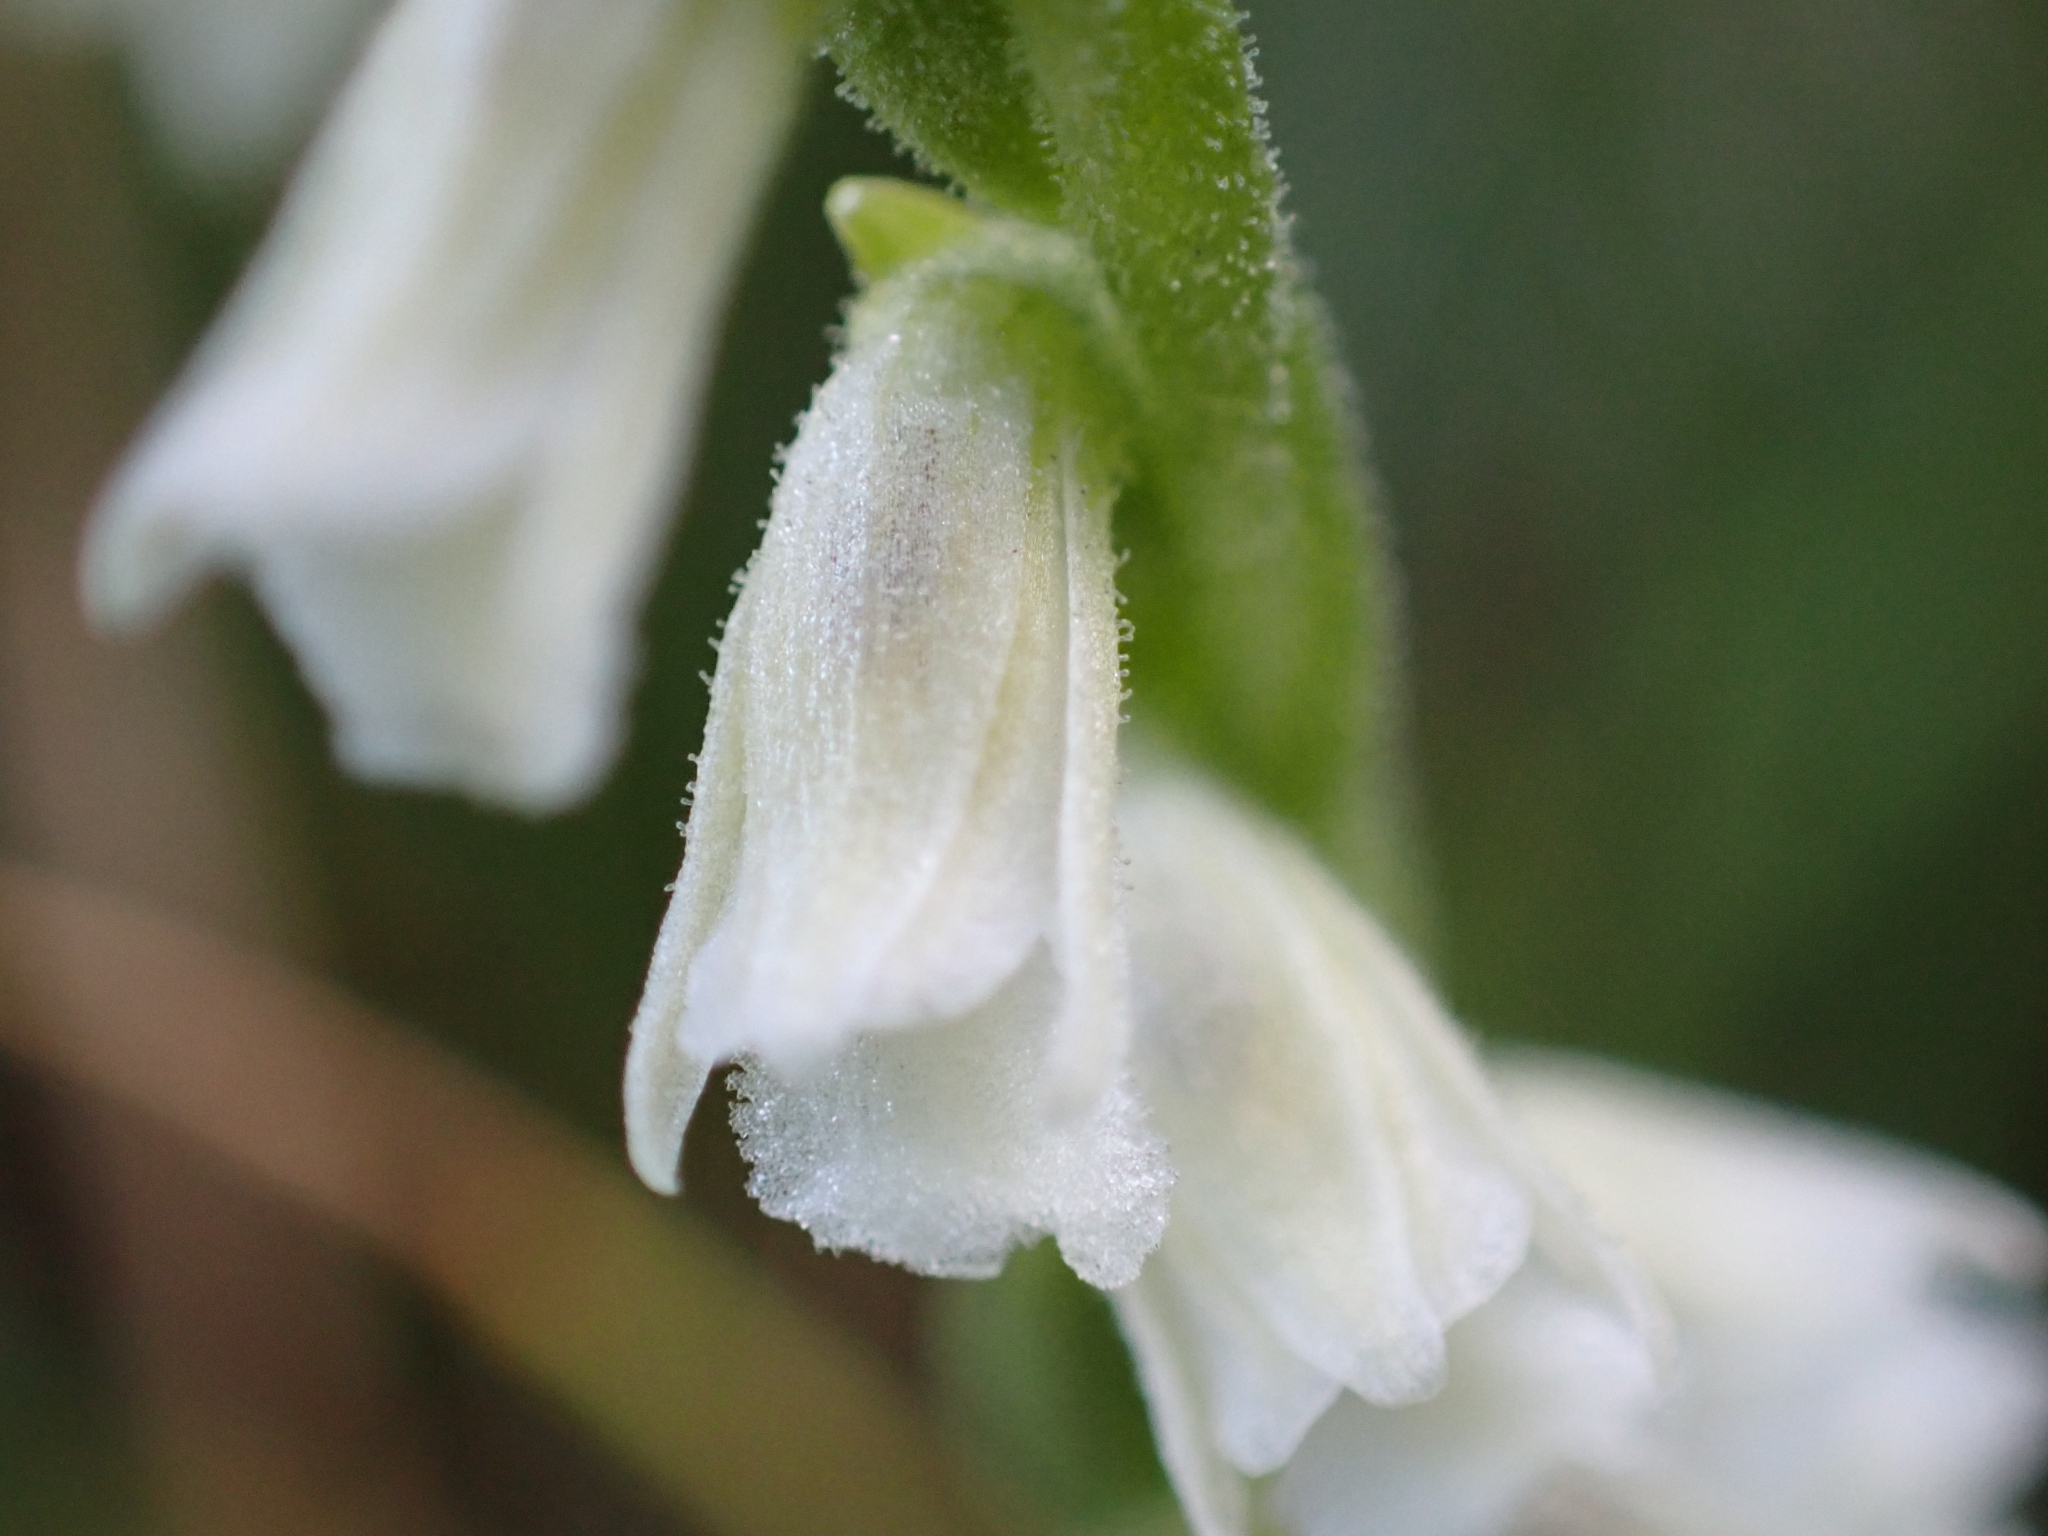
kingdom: Plantae
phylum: Tracheophyta
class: Liliopsida
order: Asparagales
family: Orchidaceae
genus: Spiranthes
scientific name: Spiranthes aestivalis
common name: Summer lady's-tresses
